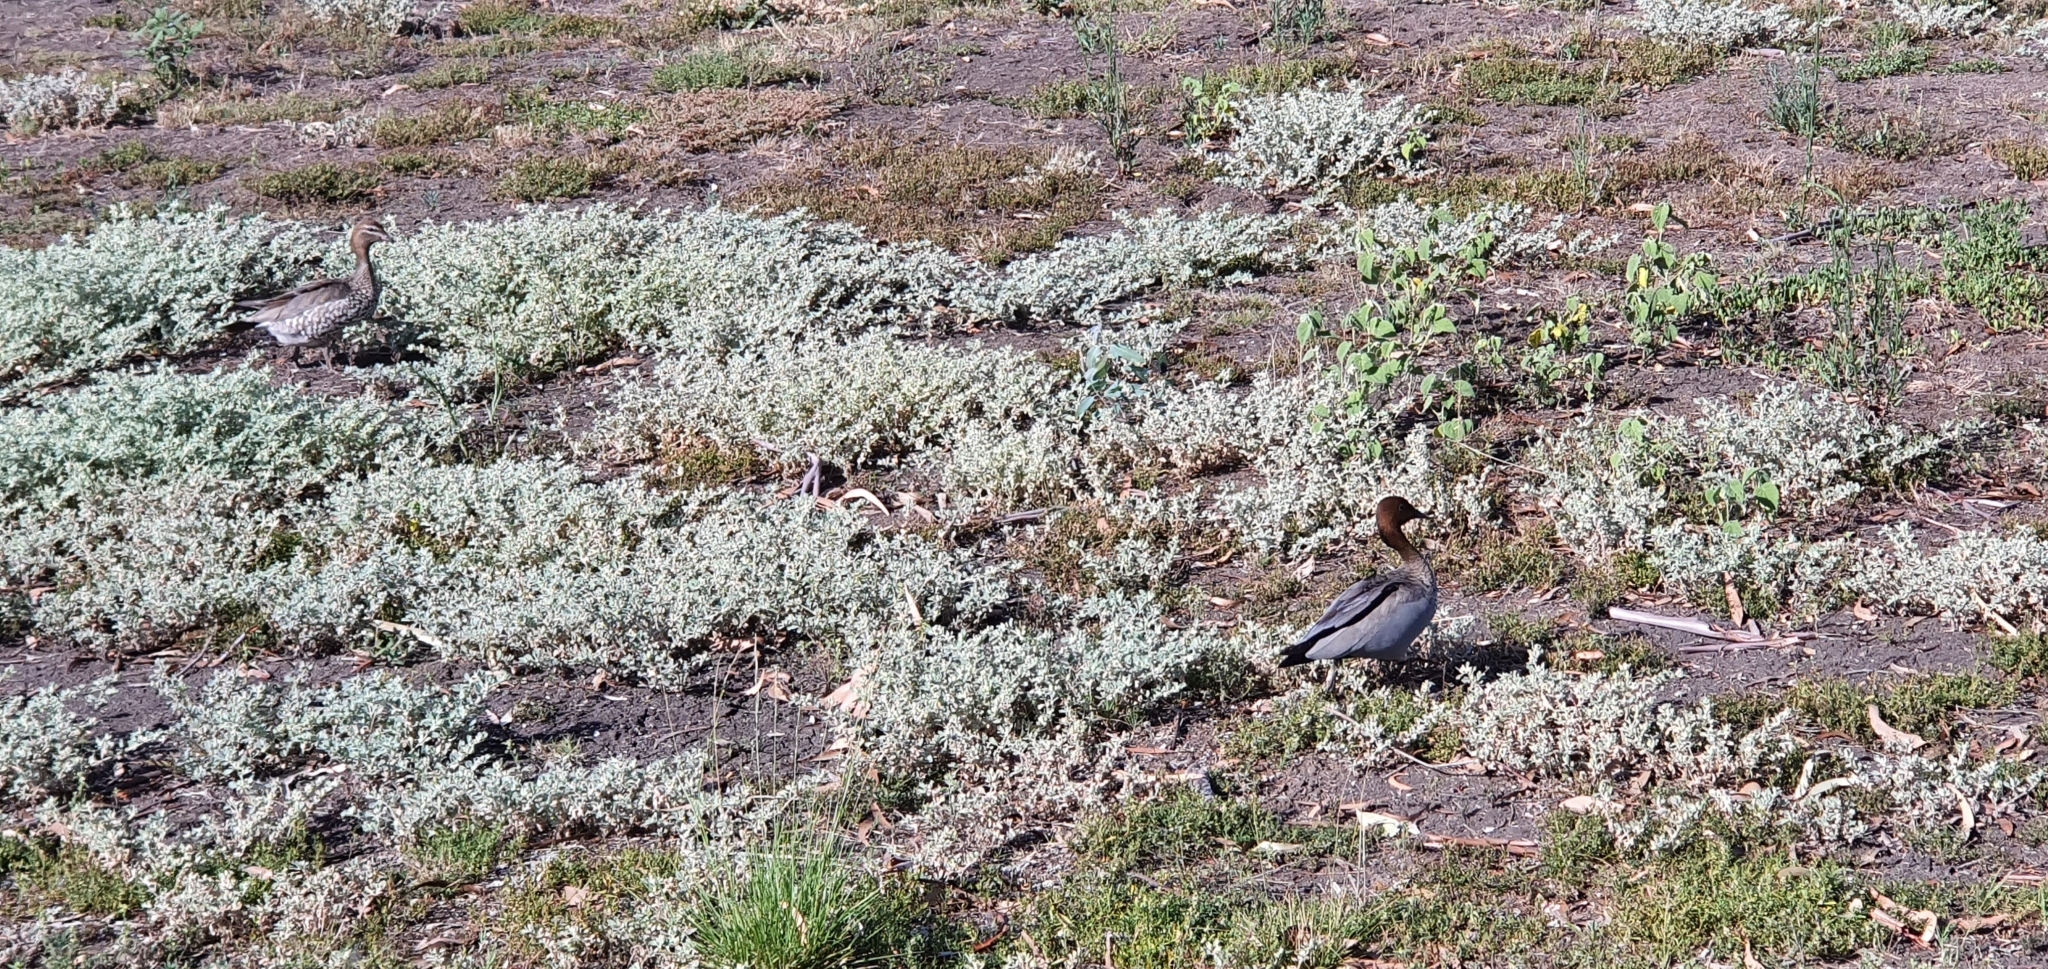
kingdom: Animalia
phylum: Chordata
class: Aves
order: Anseriformes
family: Anatidae
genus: Chenonetta
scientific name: Chenonetta jubata
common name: Maned duck
